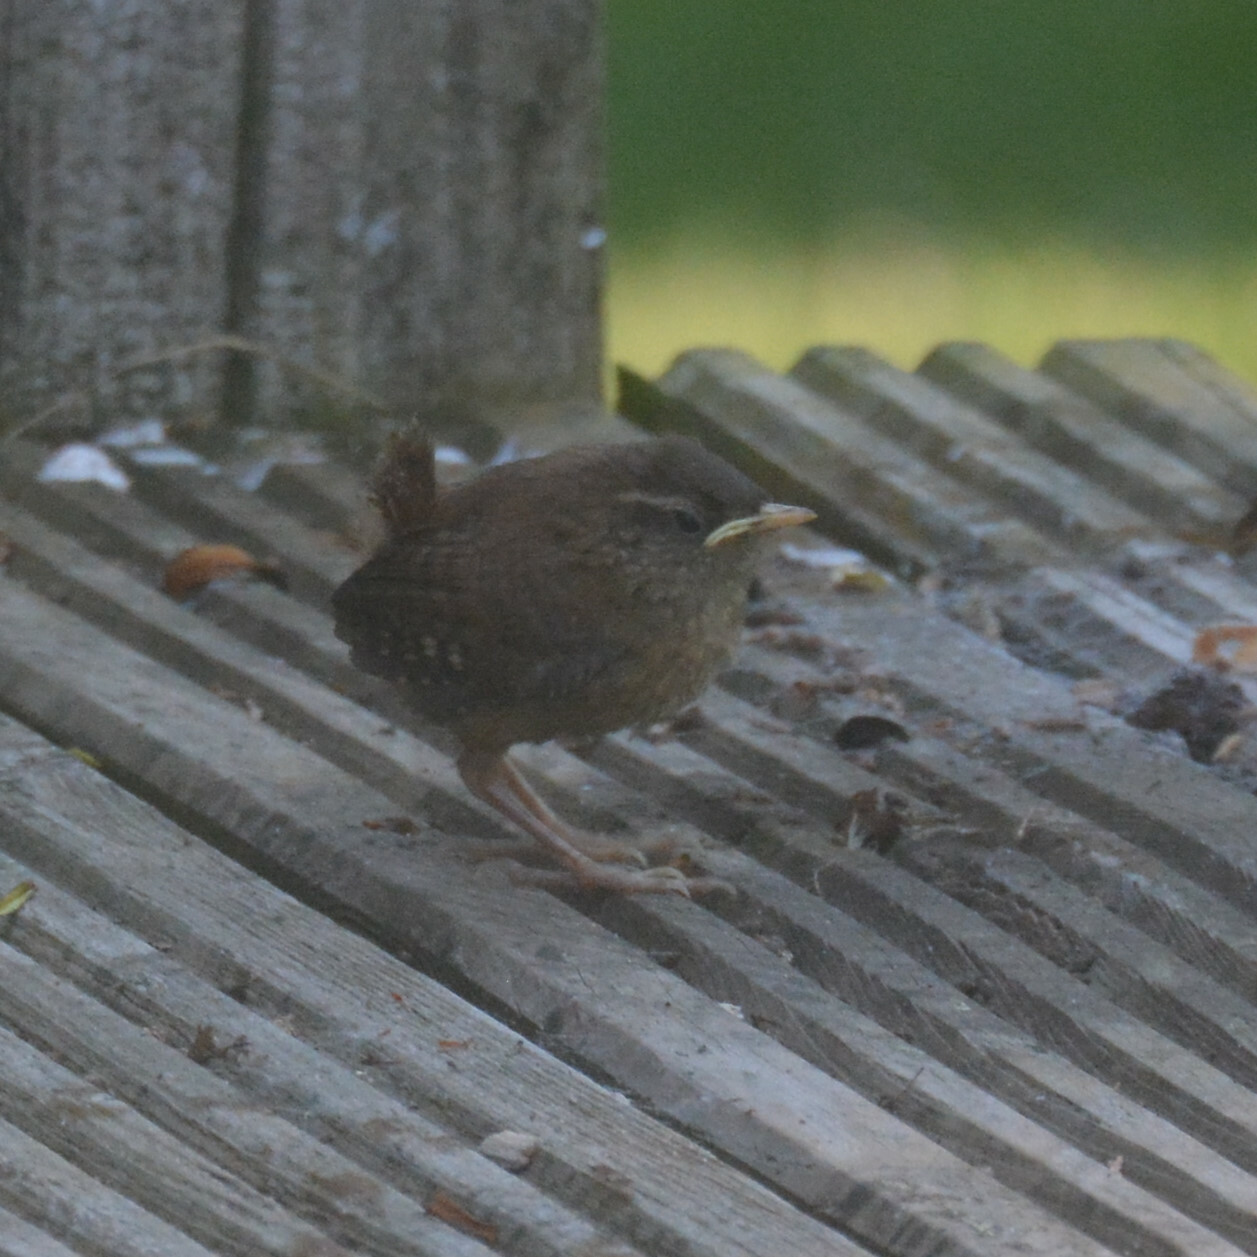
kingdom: Animalia
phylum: Chordata
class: Aves
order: Passeriformes
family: Troglodytidae
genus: Troglodytes
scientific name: Troglodytes troglodytes
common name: Eurasian wren
